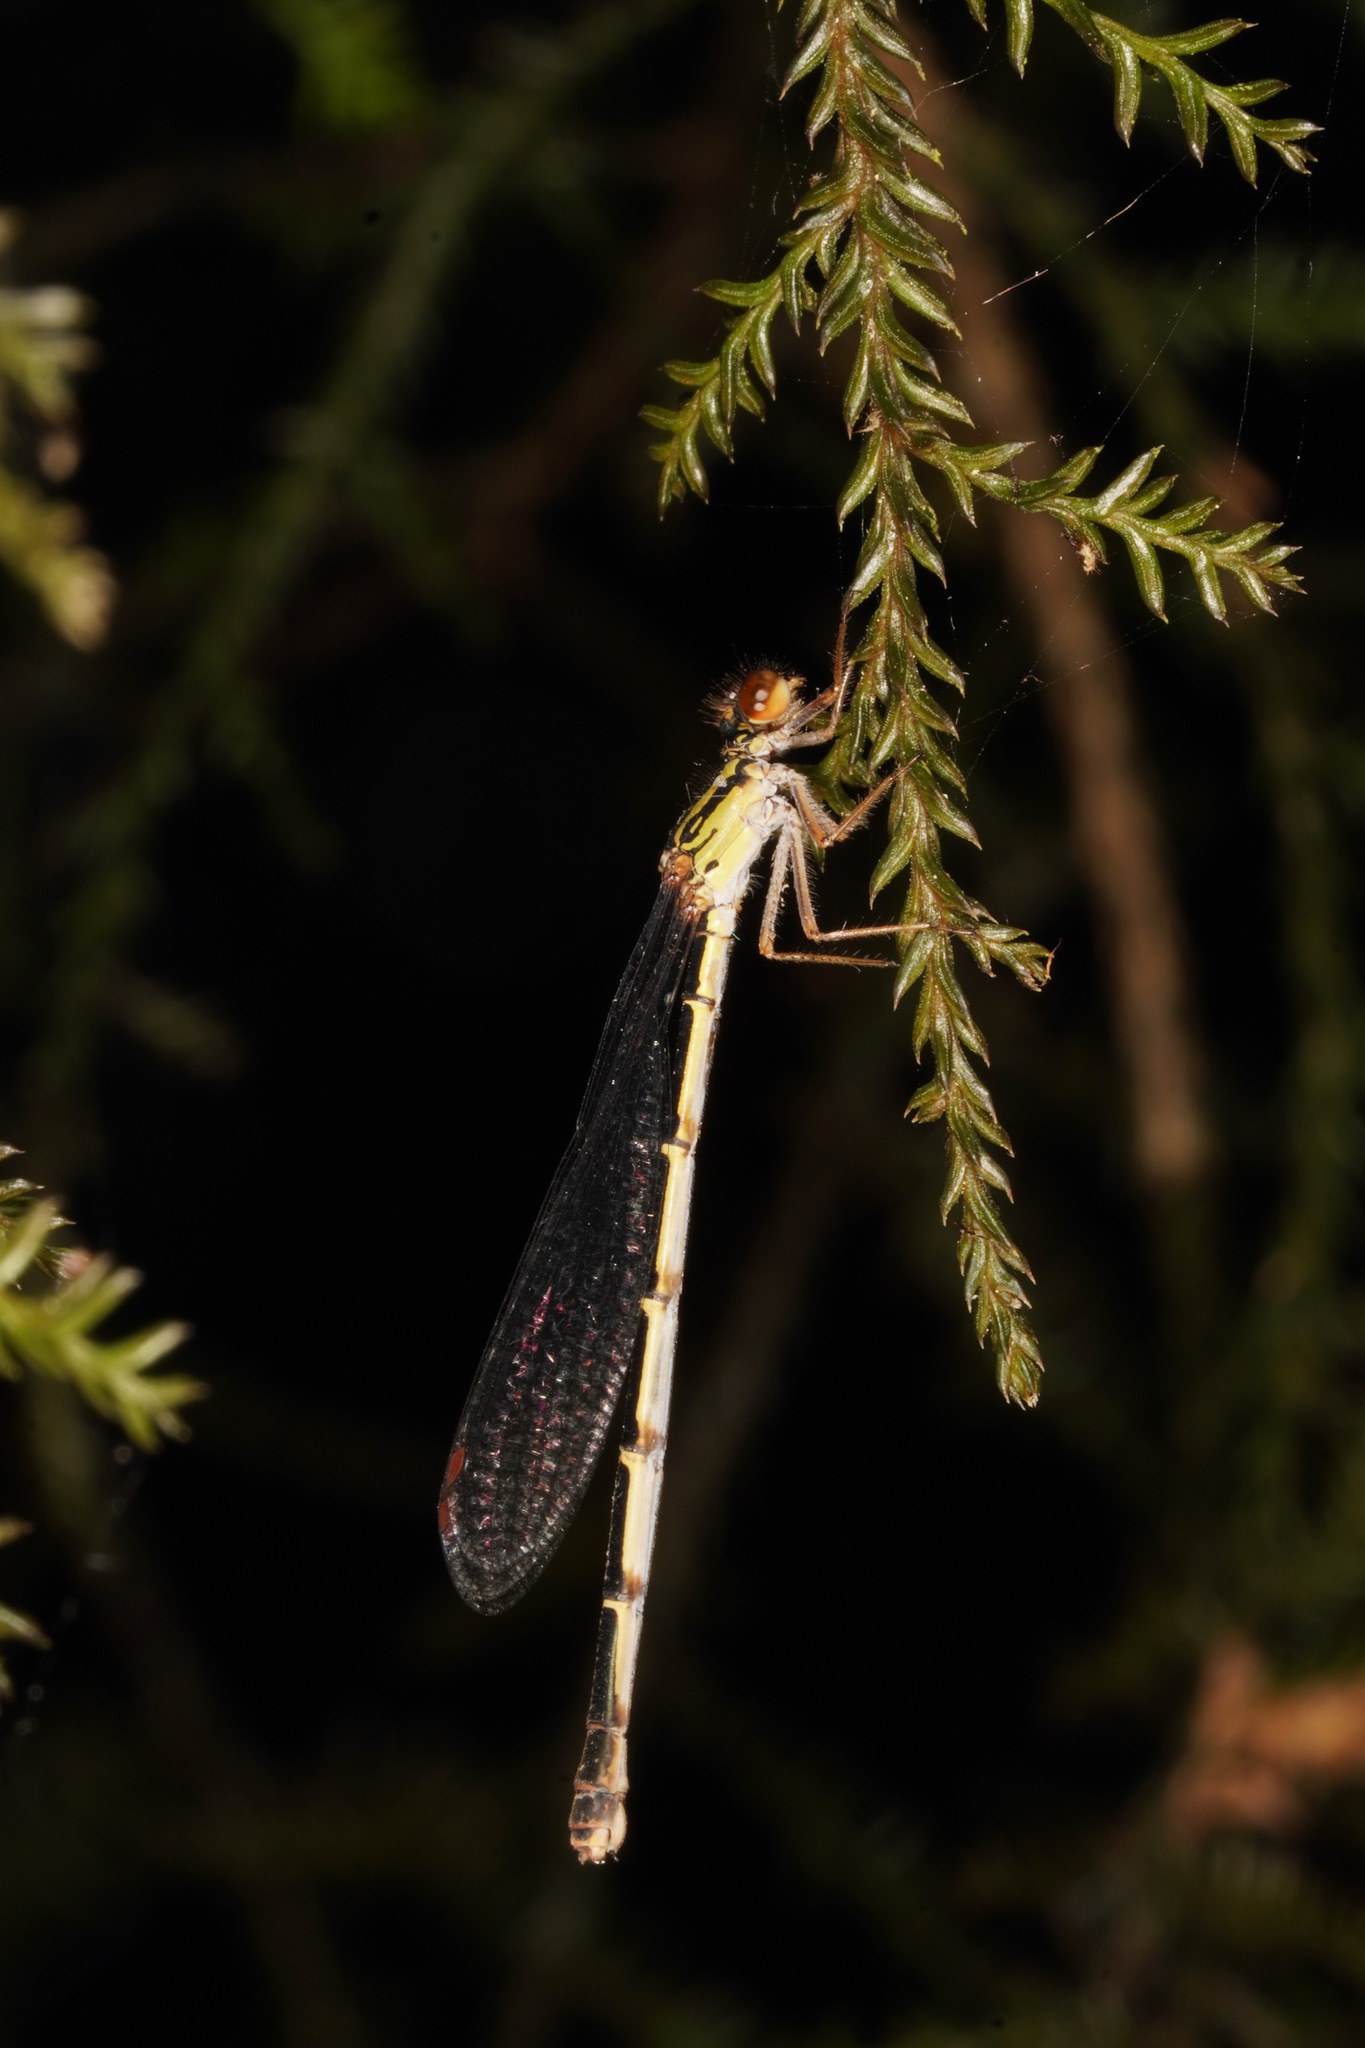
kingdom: Animalia
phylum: Arthropoda
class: Insecta
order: Odonata
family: Coenagrionidae
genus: Xanthocnemis
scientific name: Xanthocnemis zealandica
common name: Common redcoat damselfly
